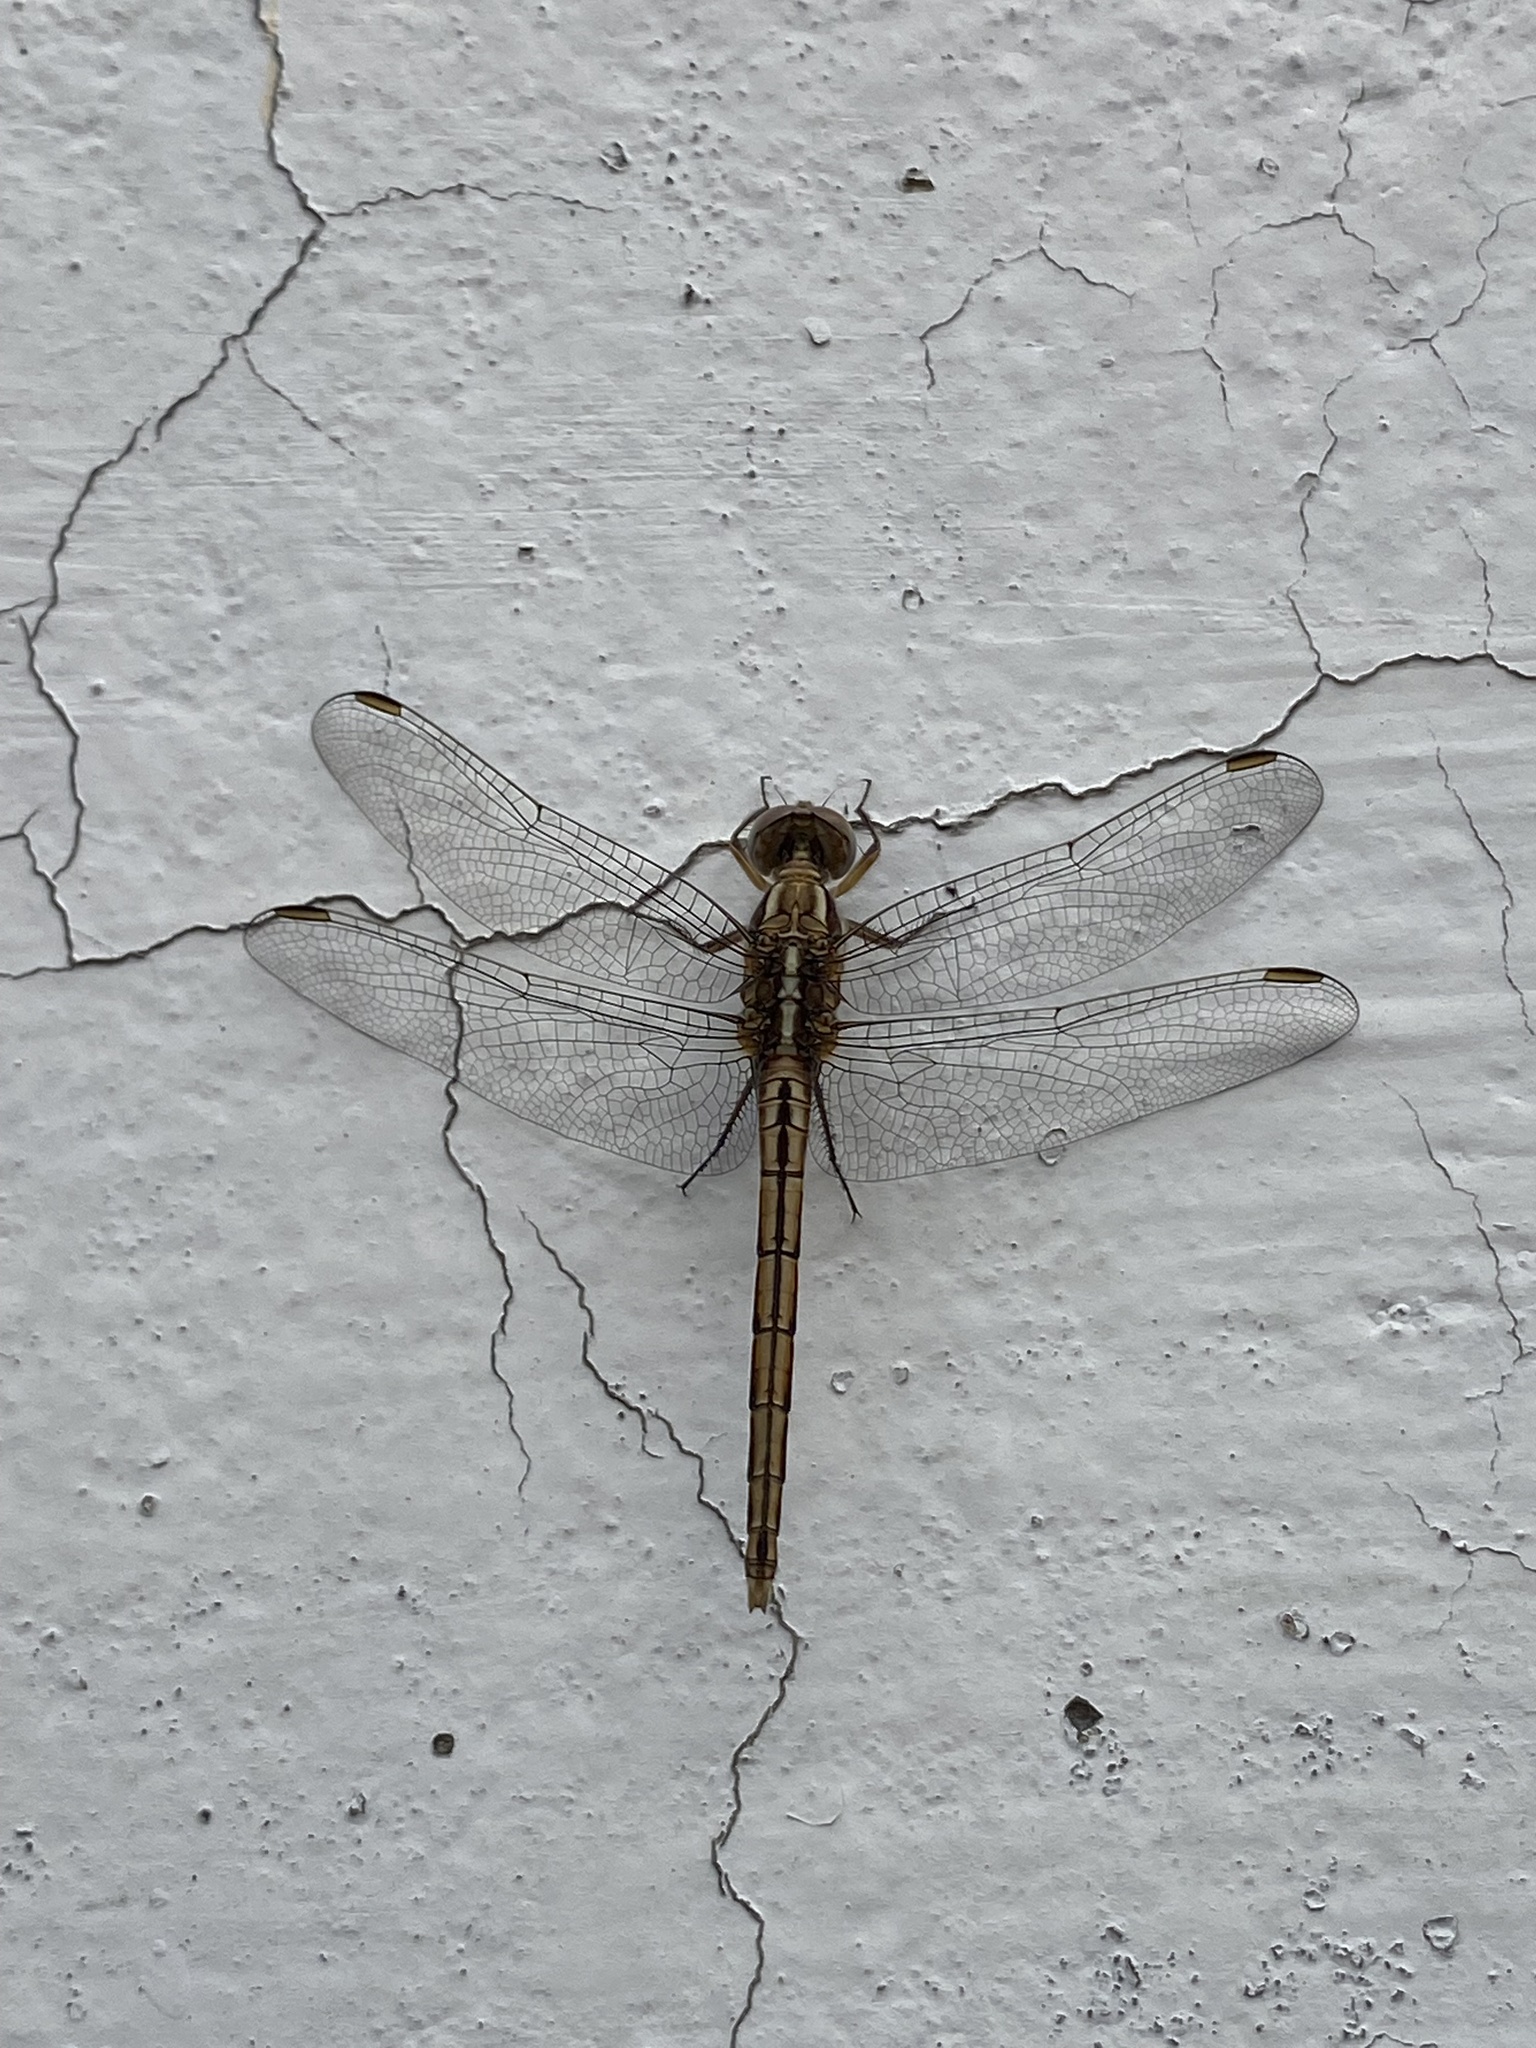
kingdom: Animalia
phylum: Arthropoda
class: Insecta
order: Odonata
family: Libellulidae
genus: Orthetrum
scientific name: Orthetrum taeniolatum
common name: Small skimmer
